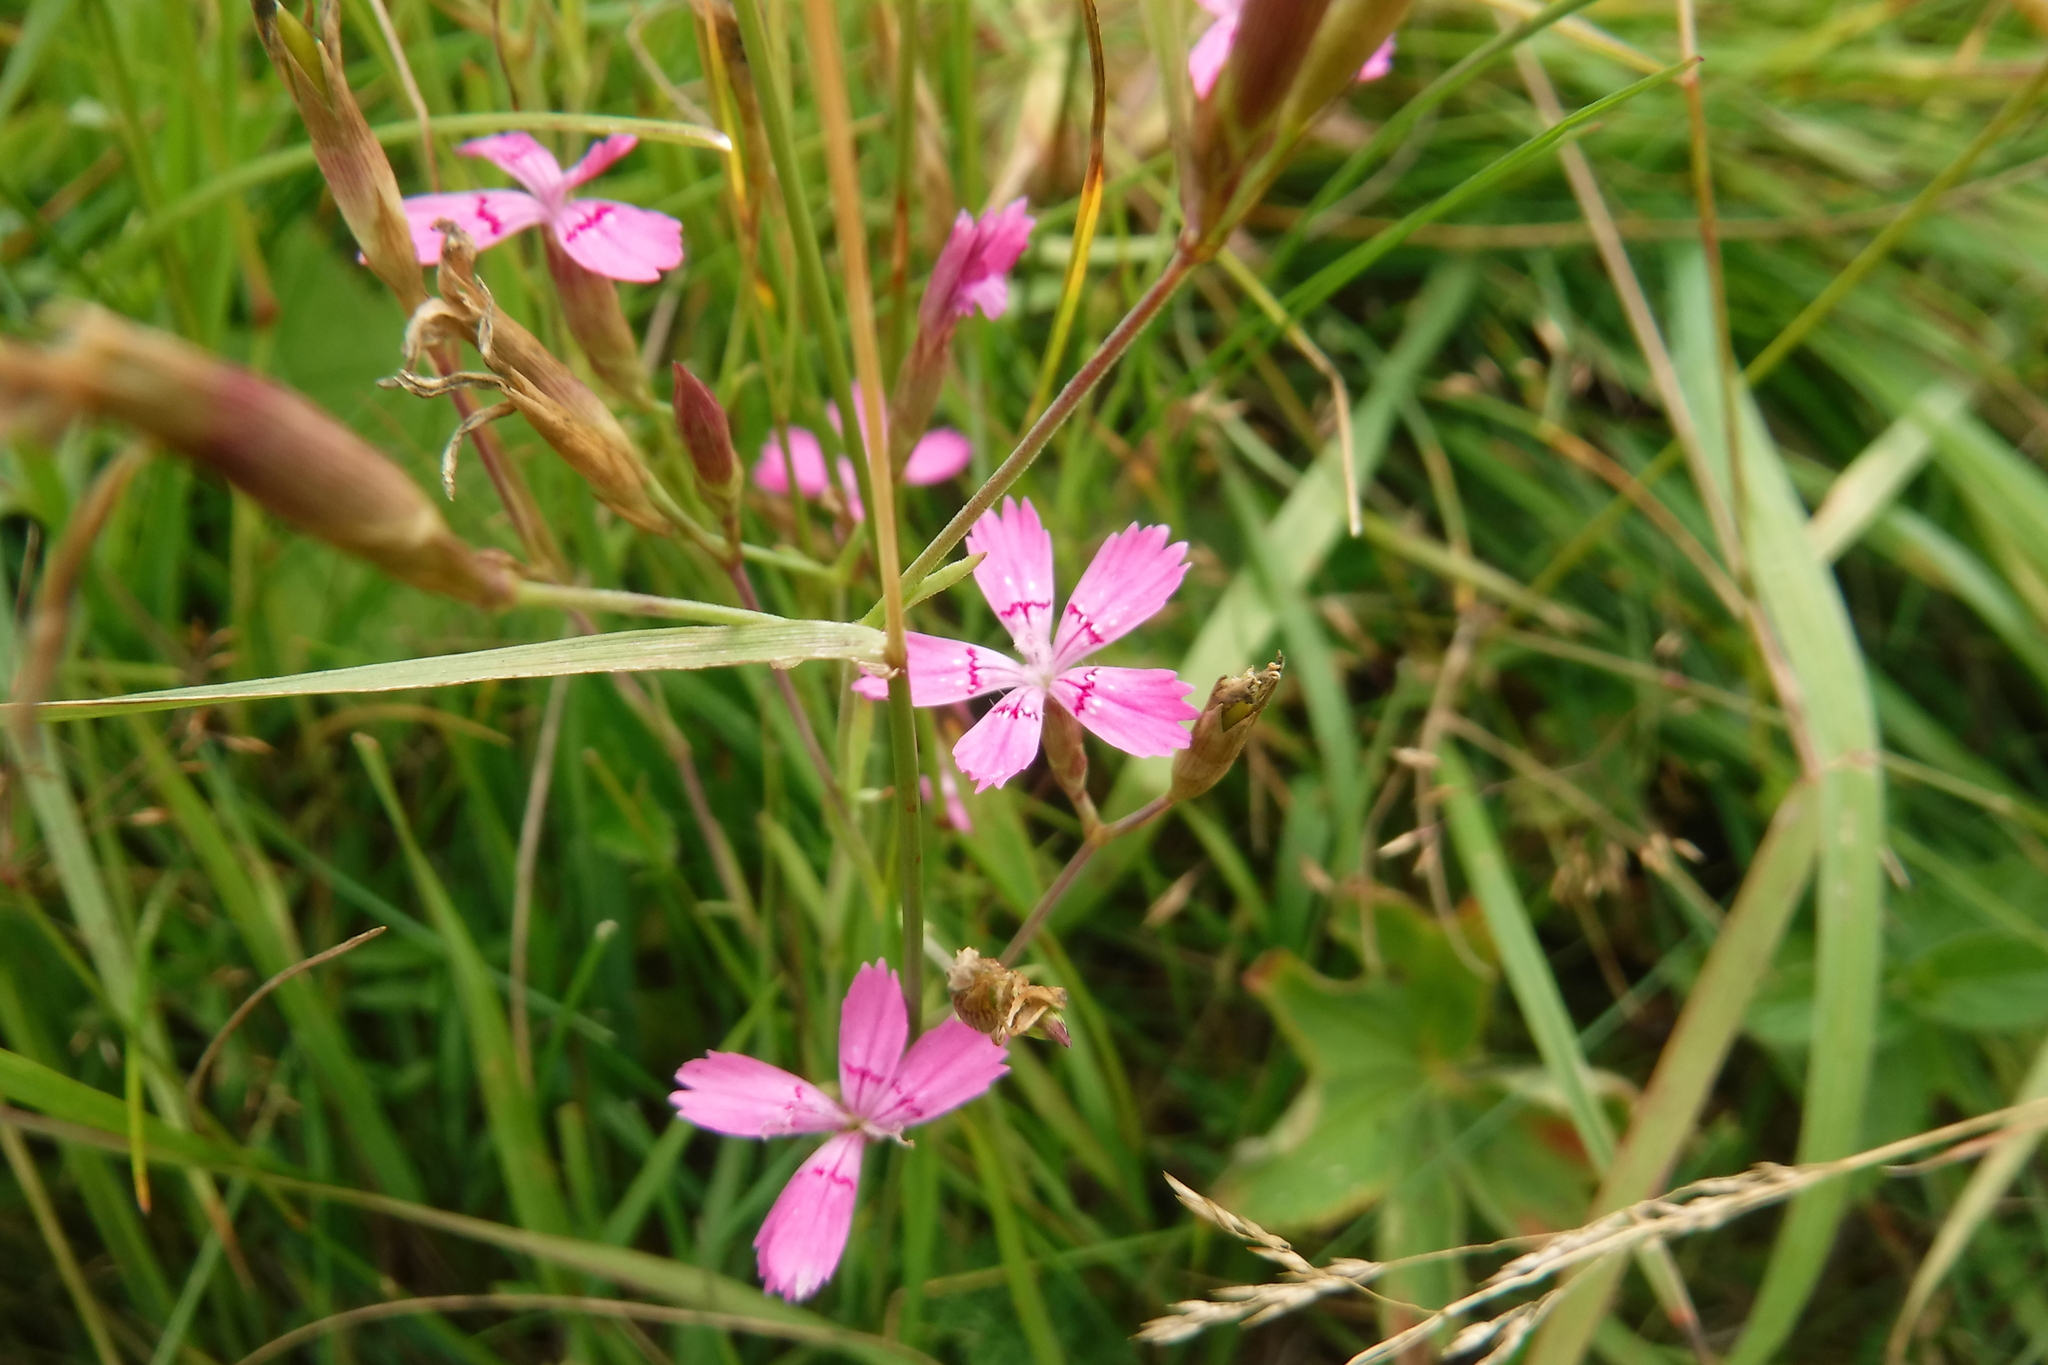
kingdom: Plantae
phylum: Tracheophyta
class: Magnoliopsida
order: Caryophyllales
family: Caryophyllaceae
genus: Dianthus
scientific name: Dianthus deltoides
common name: Maiden pink
